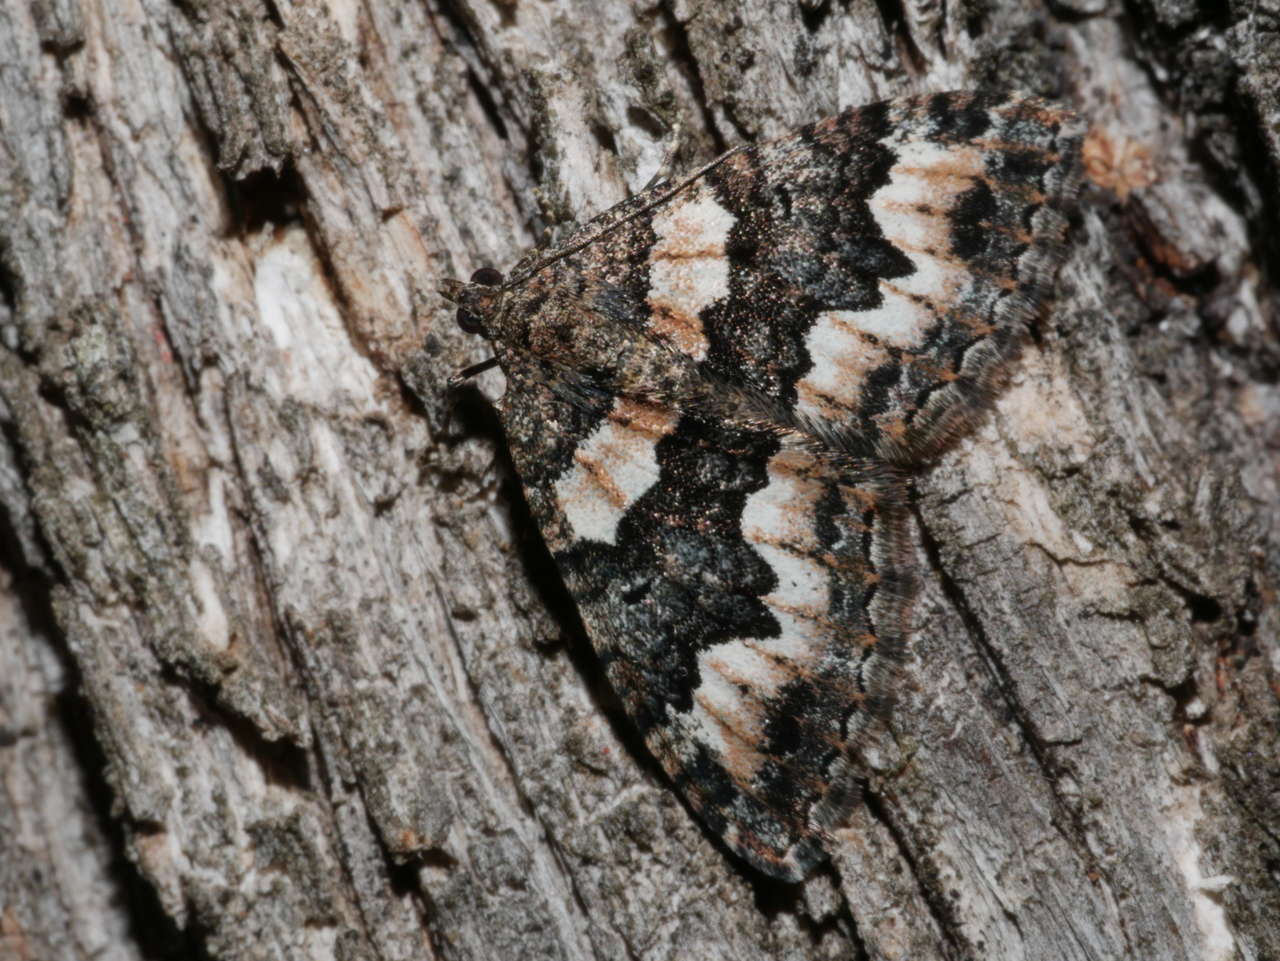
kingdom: Animalia
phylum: Arthropoda
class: Insecta
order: Lepidoptera
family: Geometridae
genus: Chrysolarentia
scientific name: Chrysolarentia gypsomela
